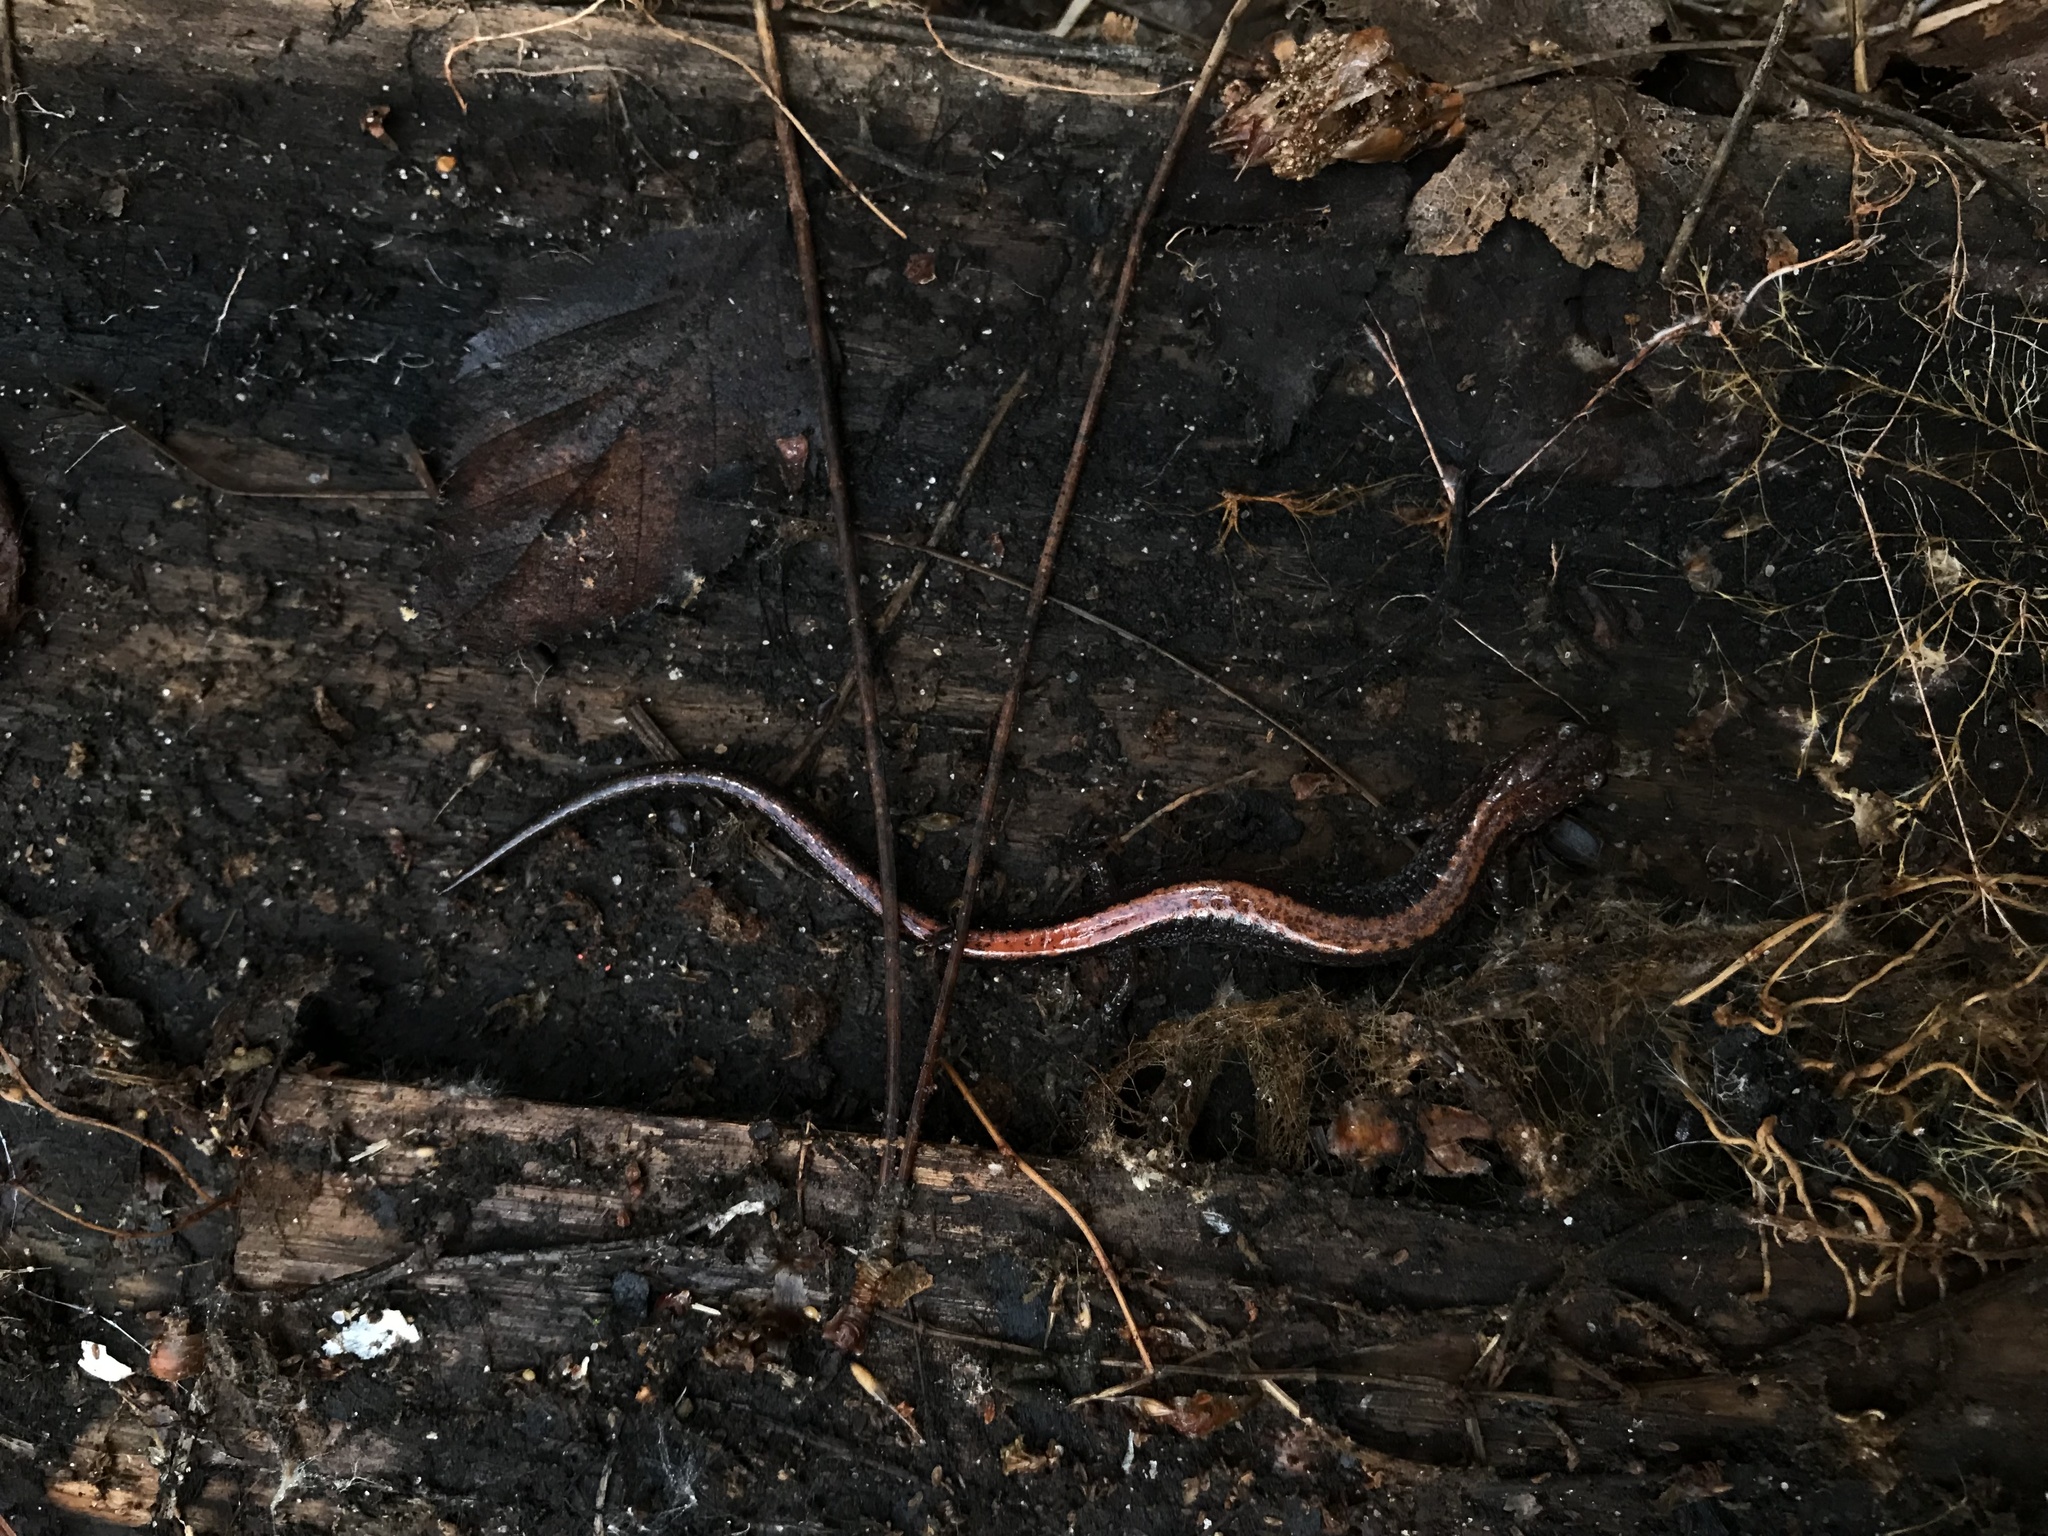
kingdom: Animalia
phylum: Chordata
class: Amphibia
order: Caudata
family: Plethodontidae
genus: Plethodon
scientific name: Plethodon cinereus
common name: Redback salamander
